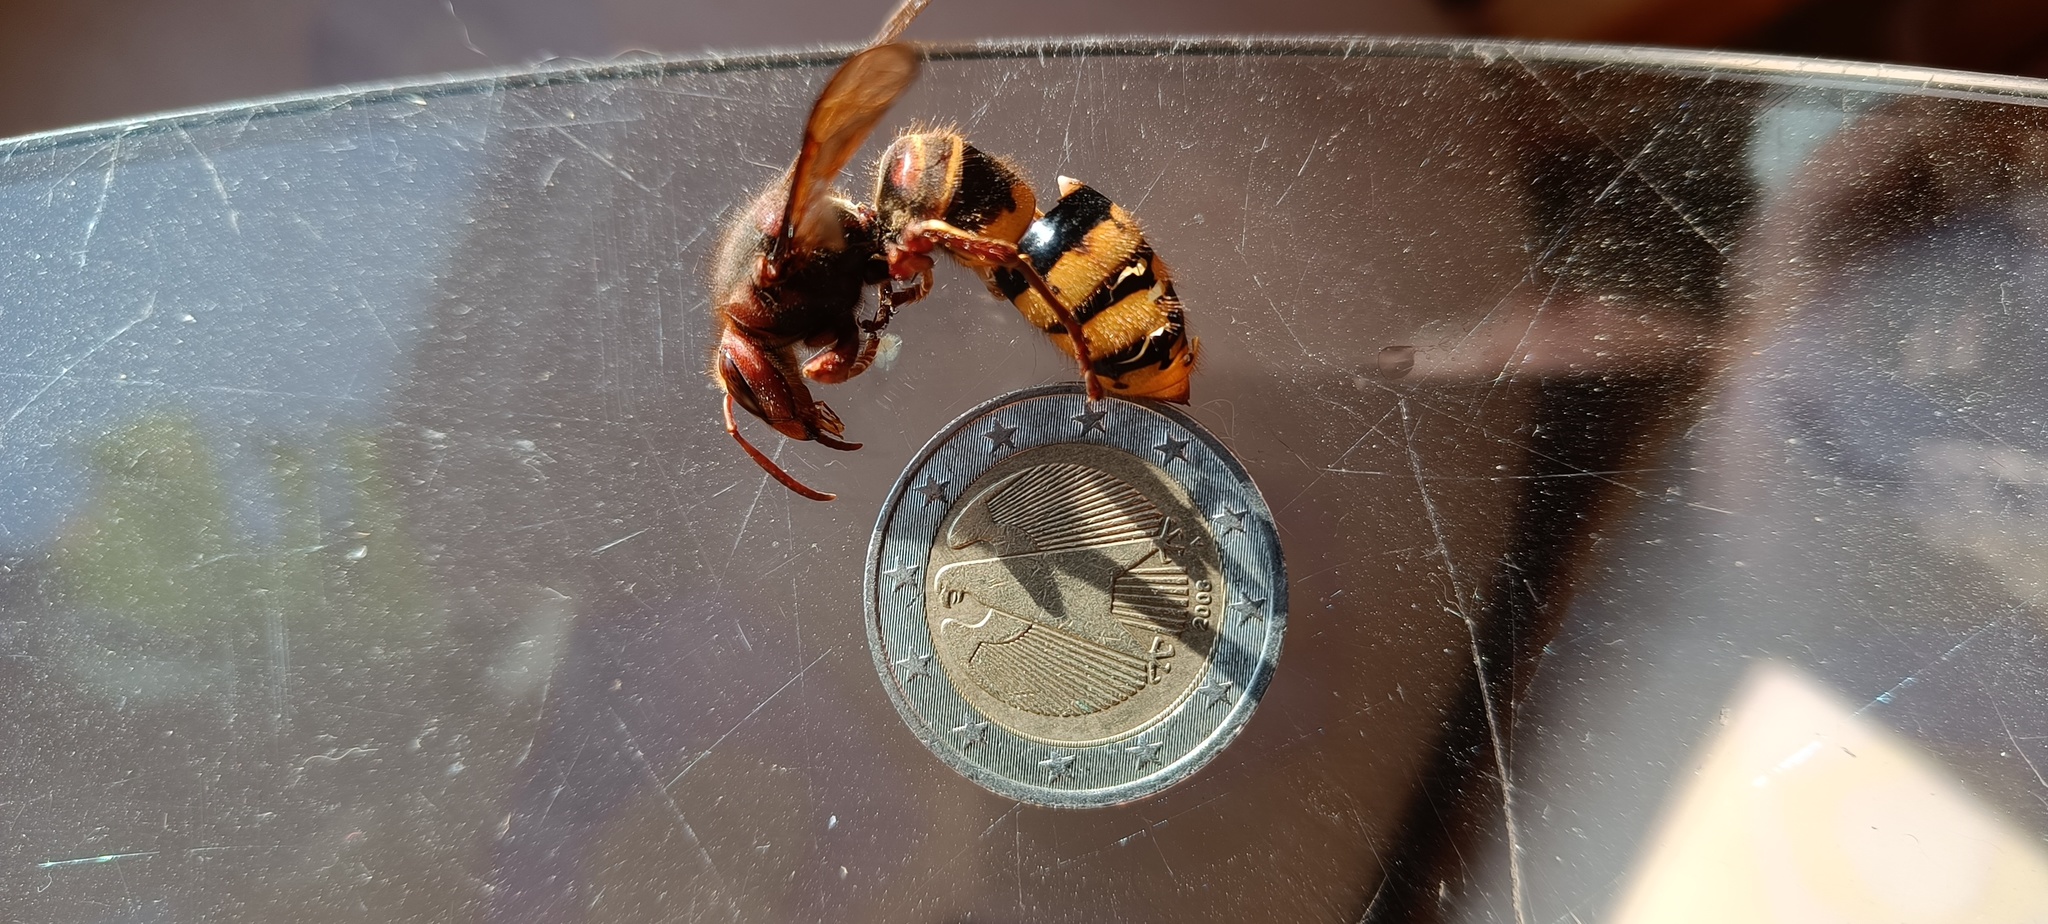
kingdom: Animalia
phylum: Arthropoda
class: Insecta
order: Hymenoptera
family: Vespidae
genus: Vespa
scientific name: Vespa crabro
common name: Hornet
